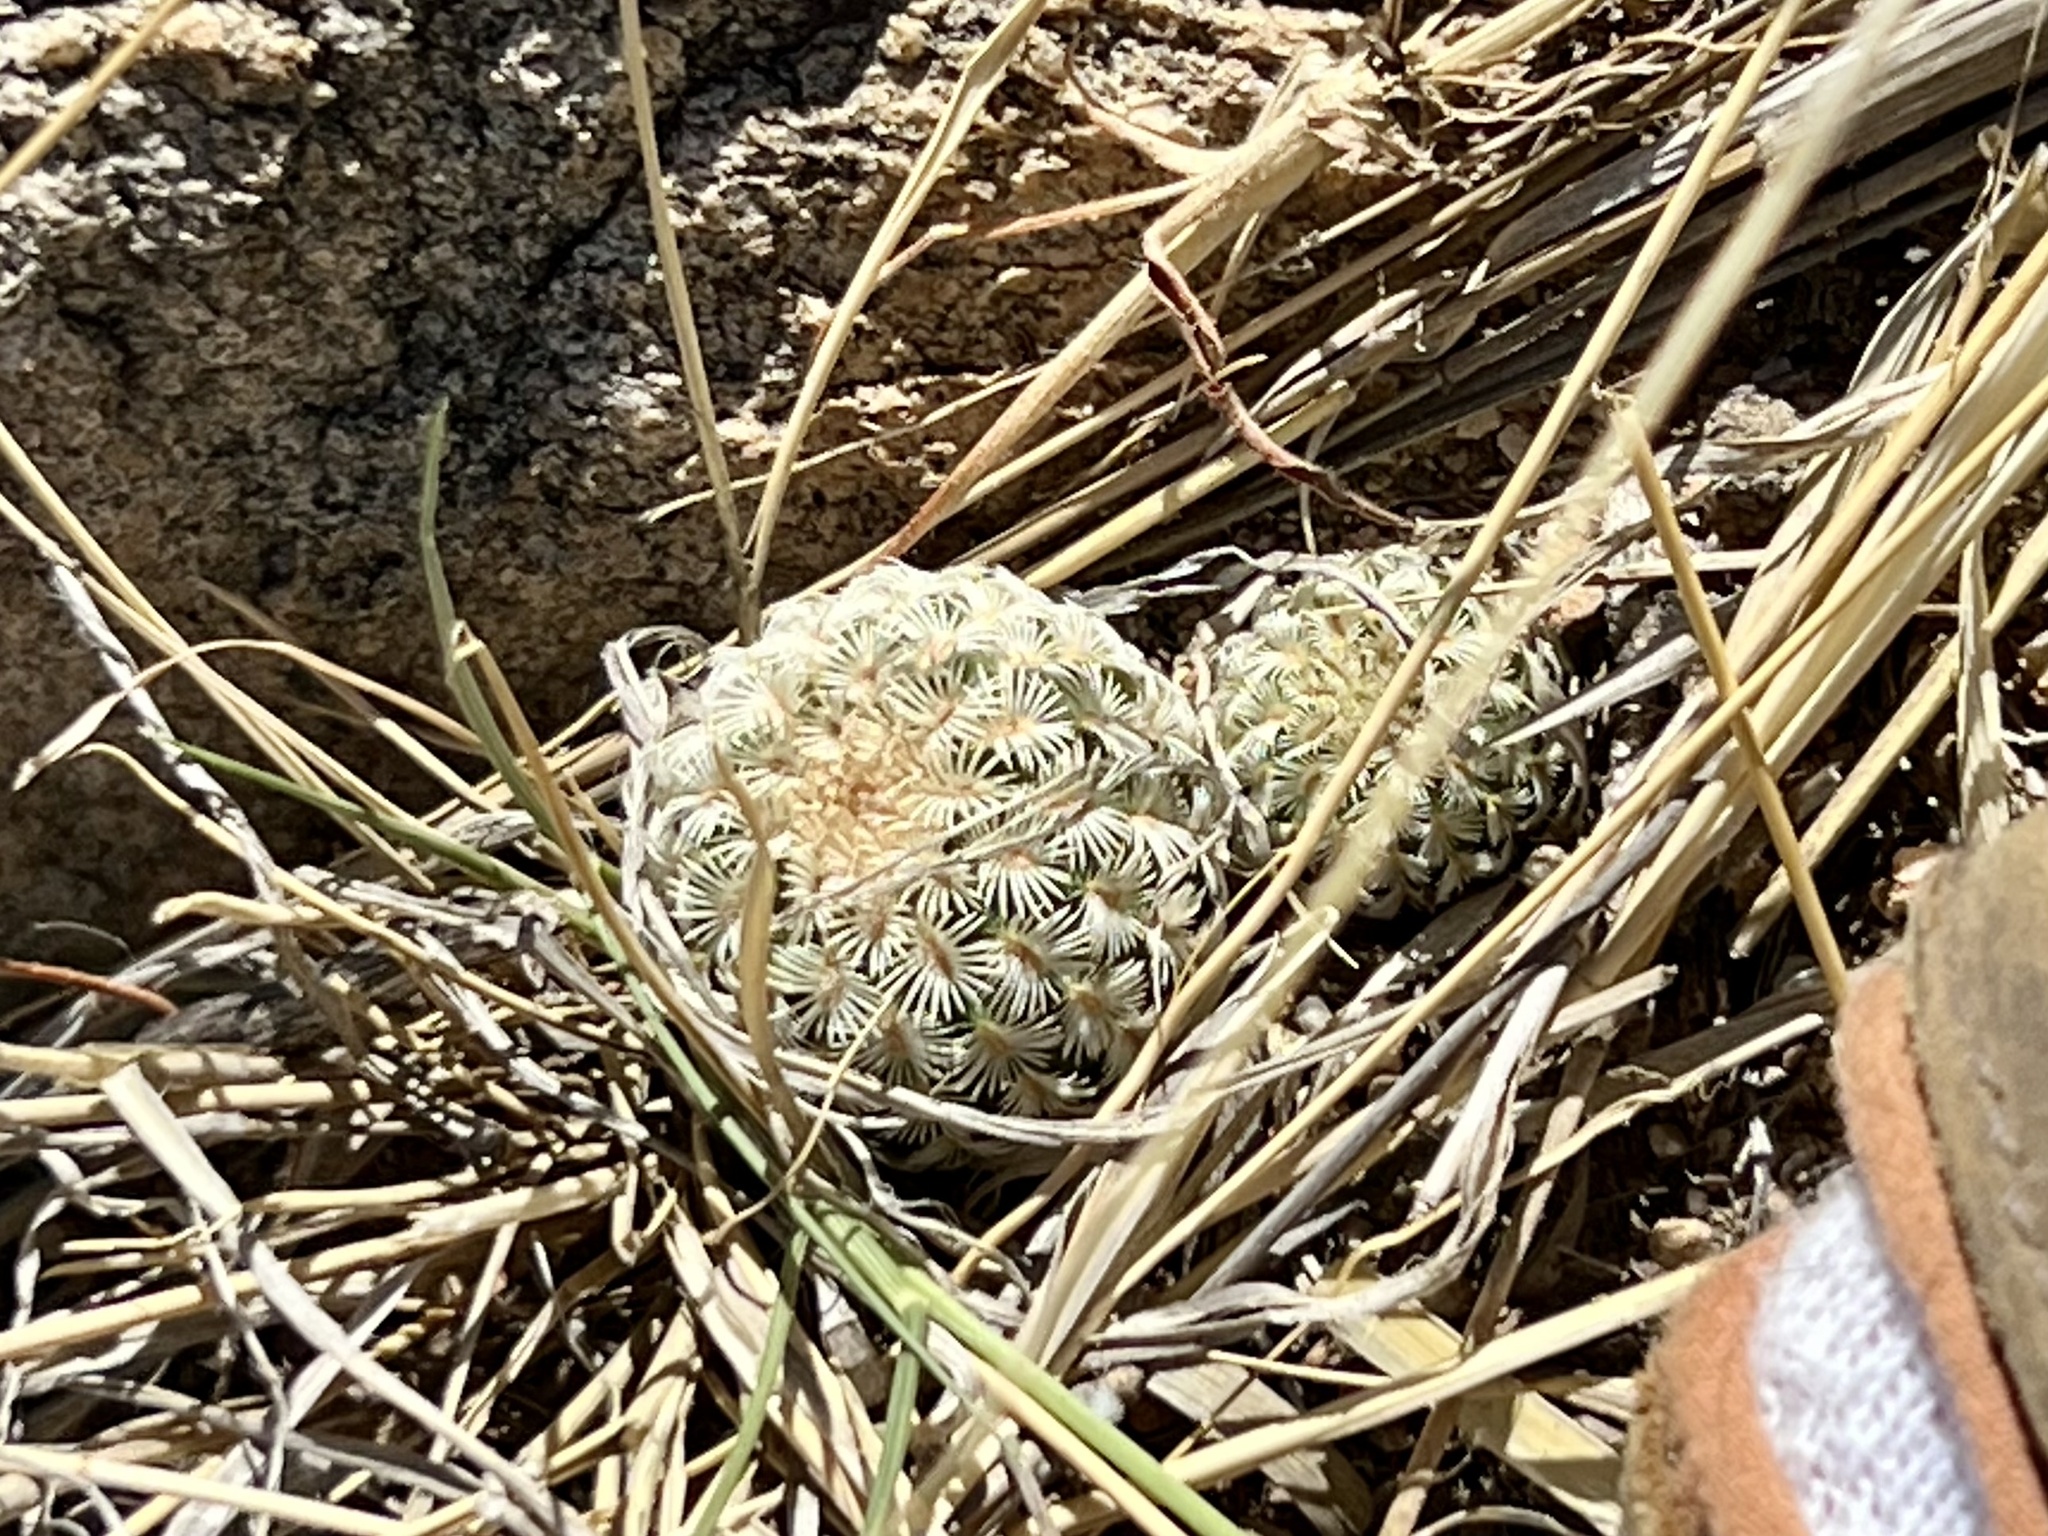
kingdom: Plantae
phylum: Tracheophyta
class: Magnoliopsida
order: Caryophyllales
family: Cactaceae
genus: Echinocereus
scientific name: Echinocereus rigidissimus
